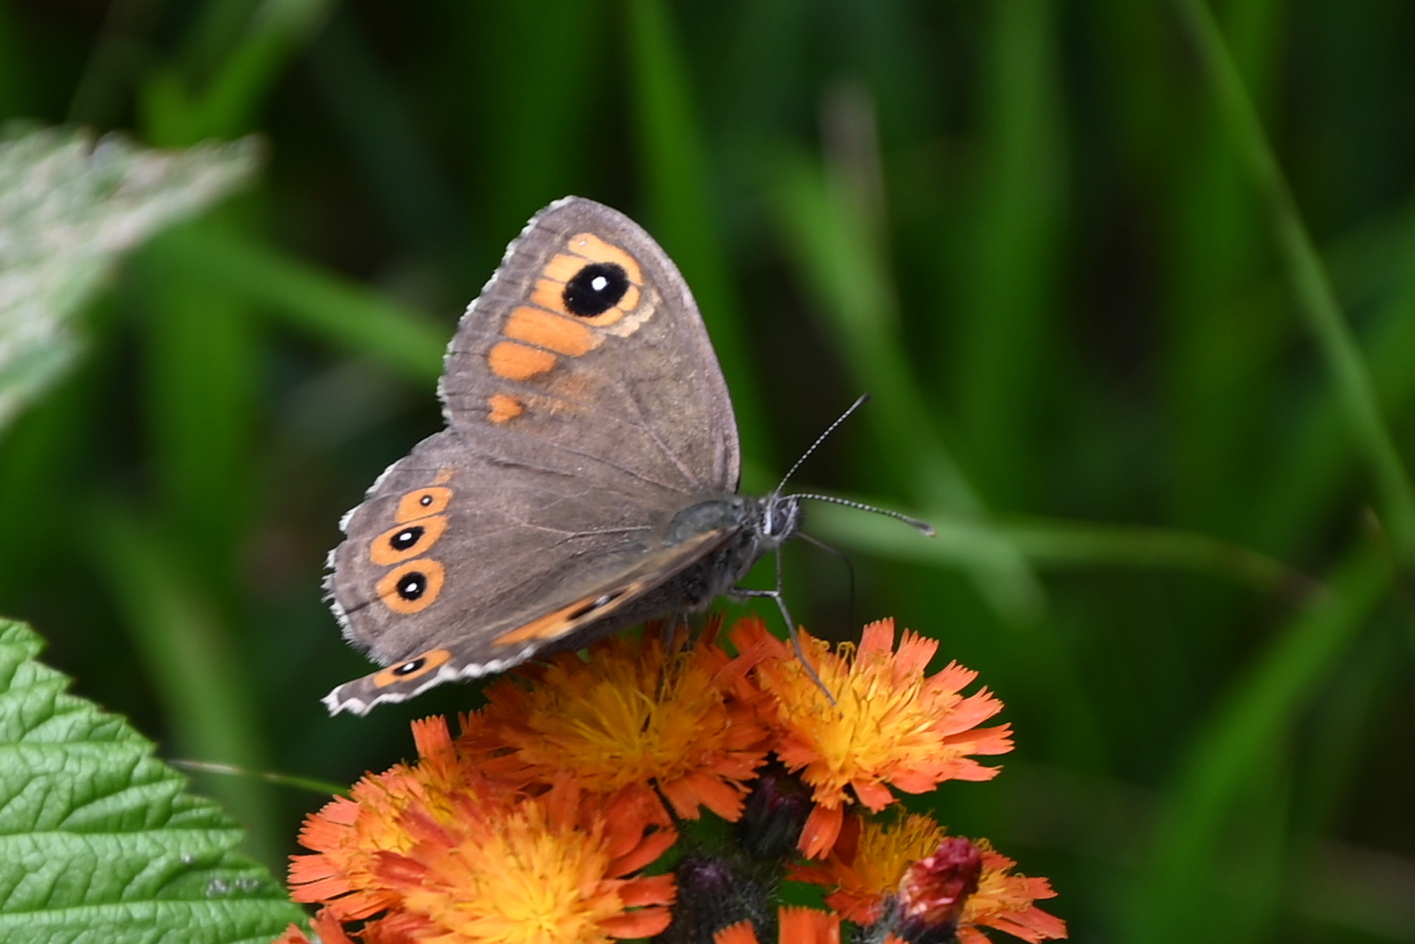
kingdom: Animalia
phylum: Arthropoda
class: Insecta
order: Lepidoptera
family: Nymphalidae
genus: Pararge
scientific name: Pararge Lasiommata maera
